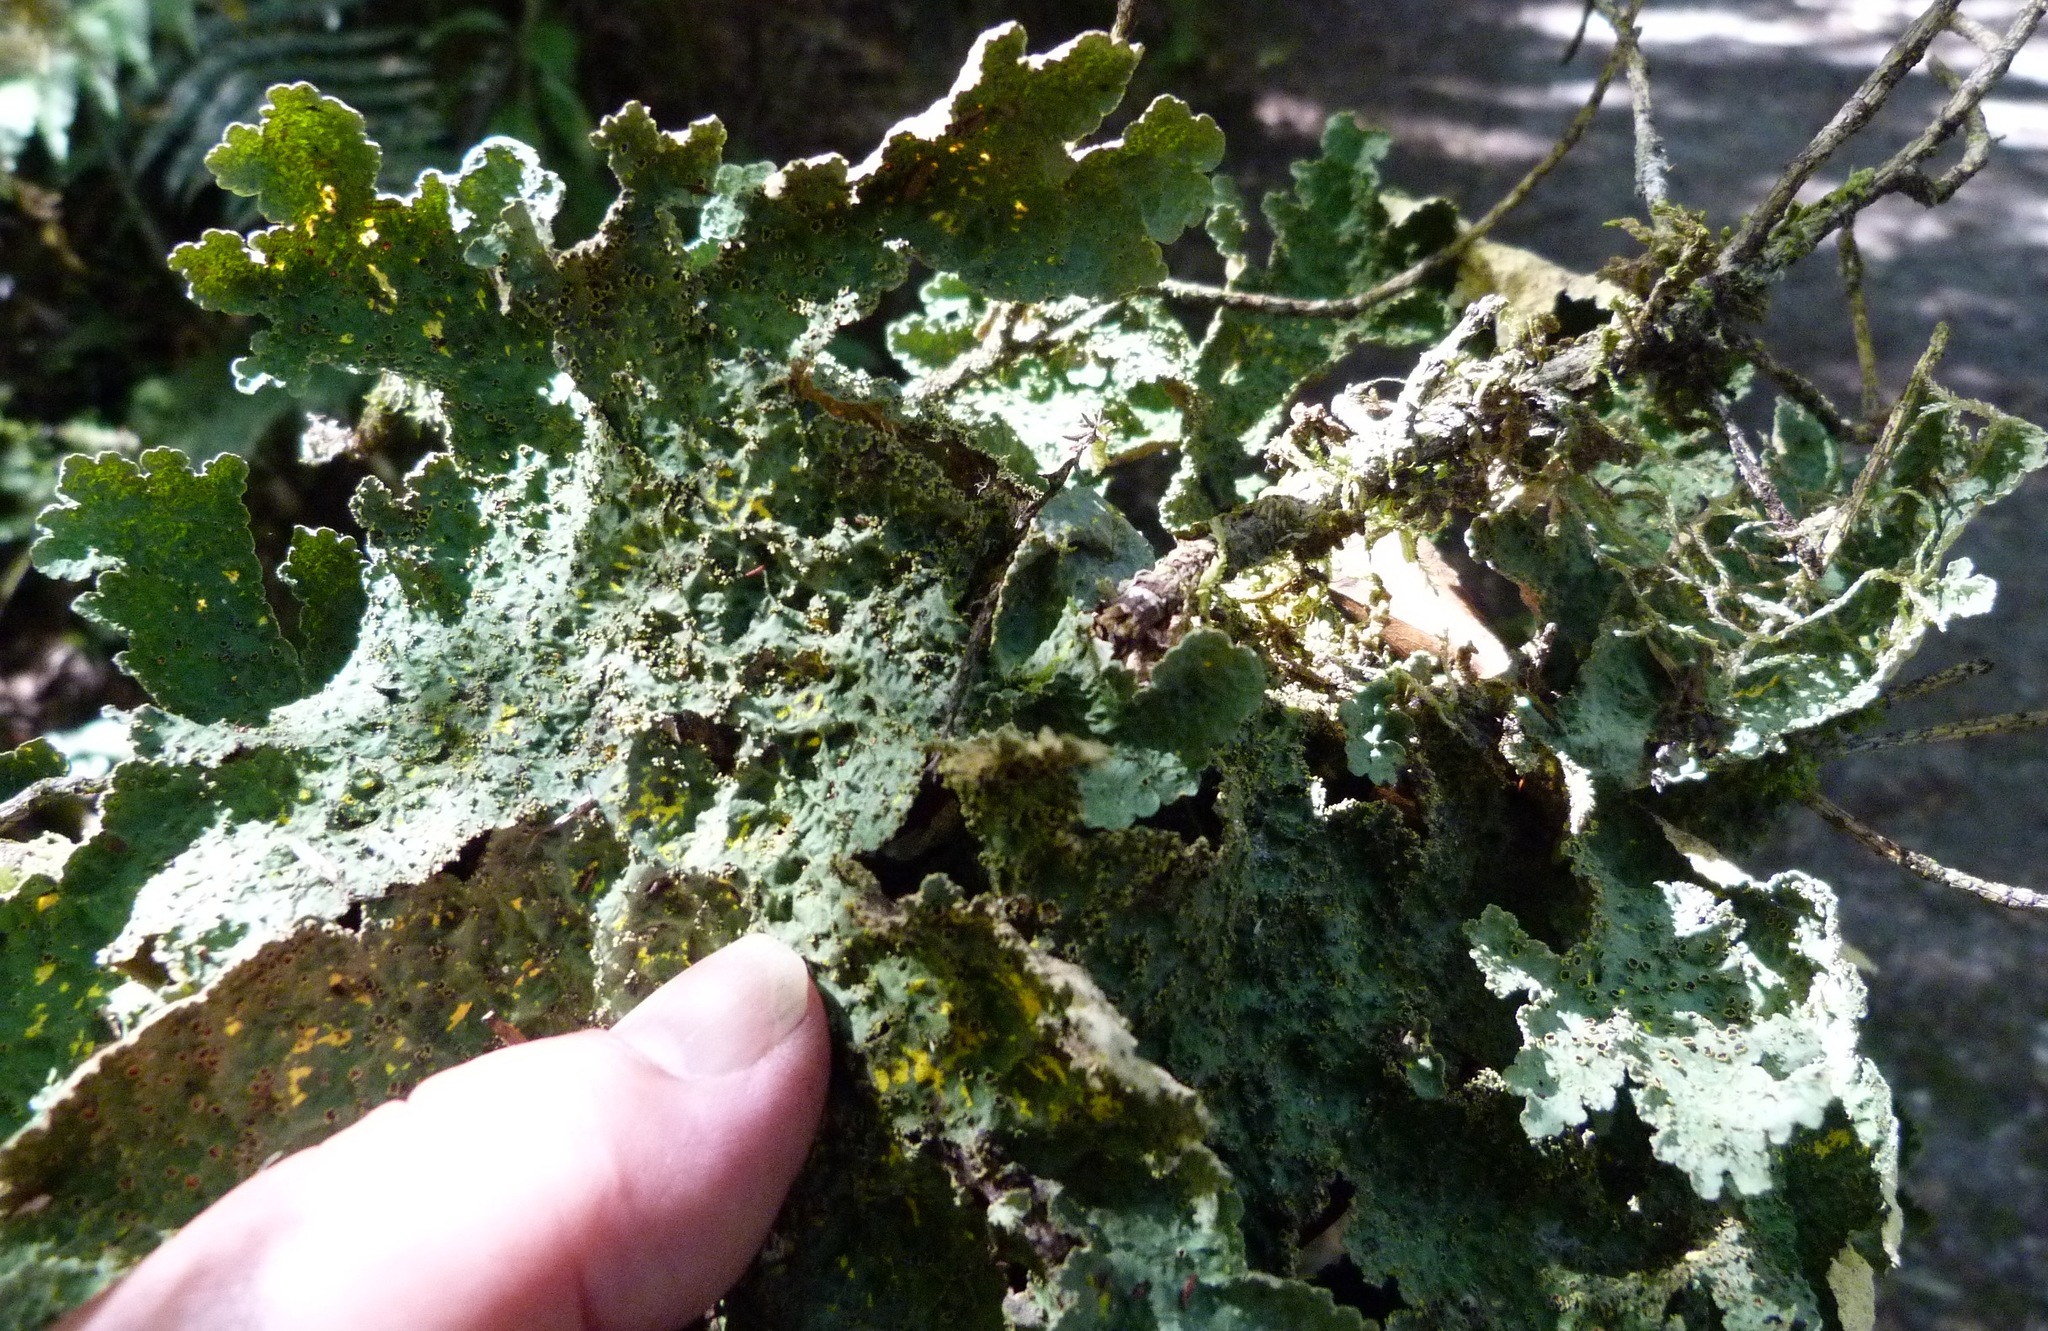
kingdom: Fungi
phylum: Ascomycota
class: Lecanoromycetes
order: Peltigerales
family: Lobariaceae
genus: Yarrumia
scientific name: Yarrumia coronata
